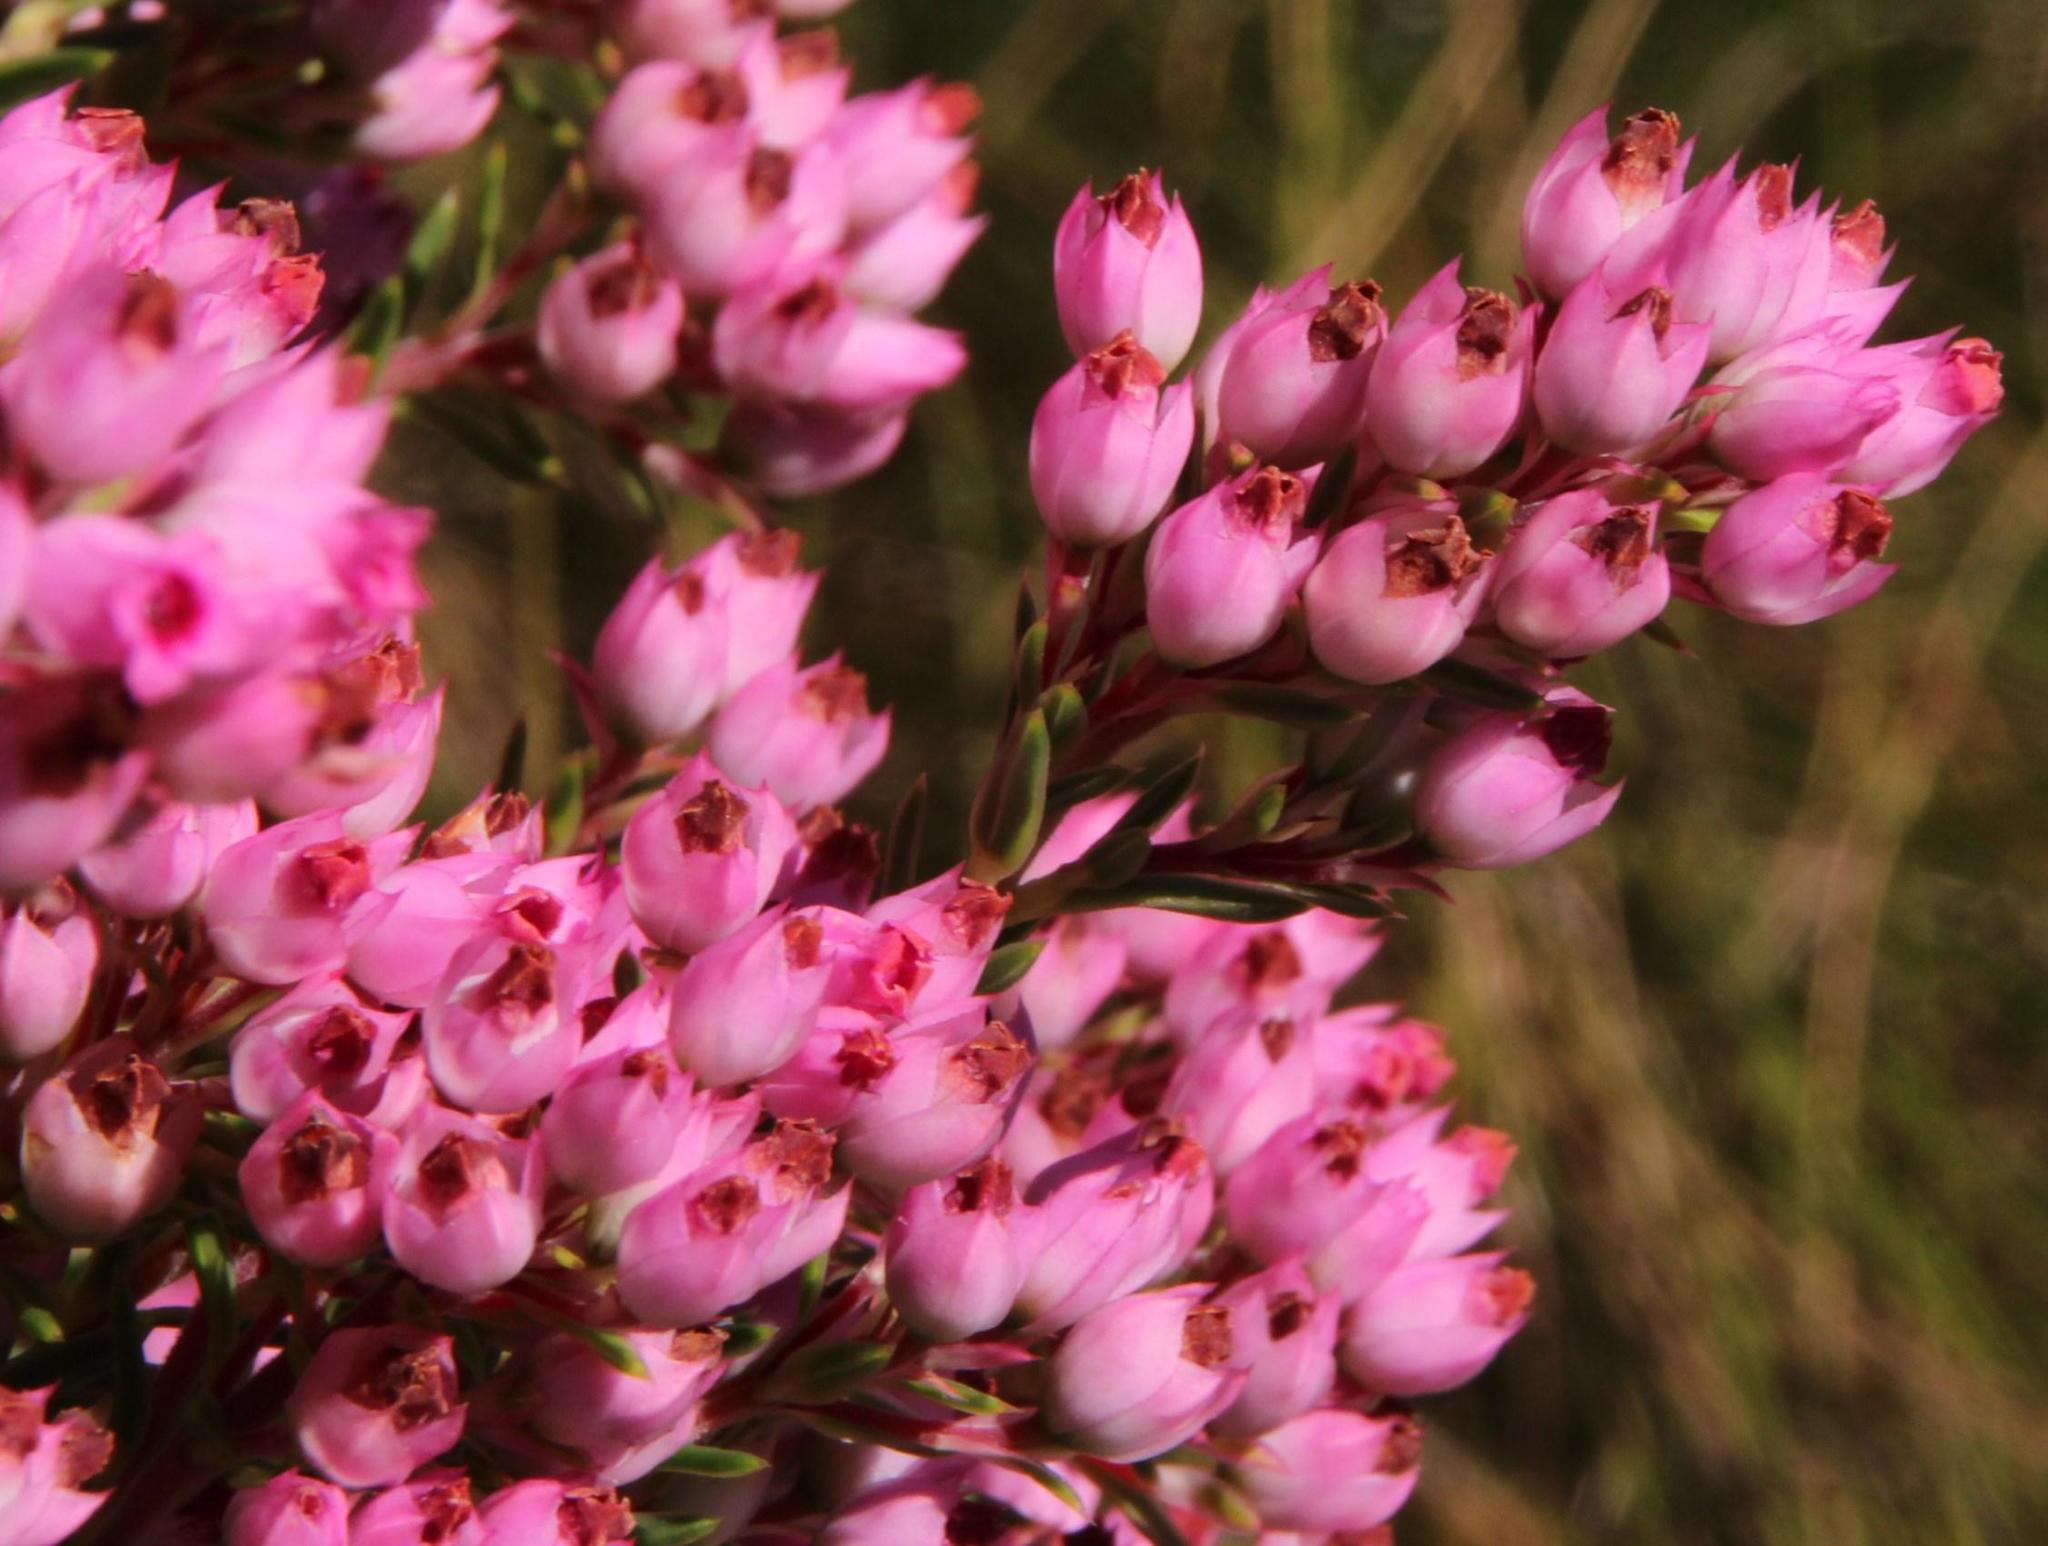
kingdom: Plantae
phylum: Tracheophyta
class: Magnoliopsida
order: Ericales
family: Ericaceae
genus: Erica
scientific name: Erica taxifolia
